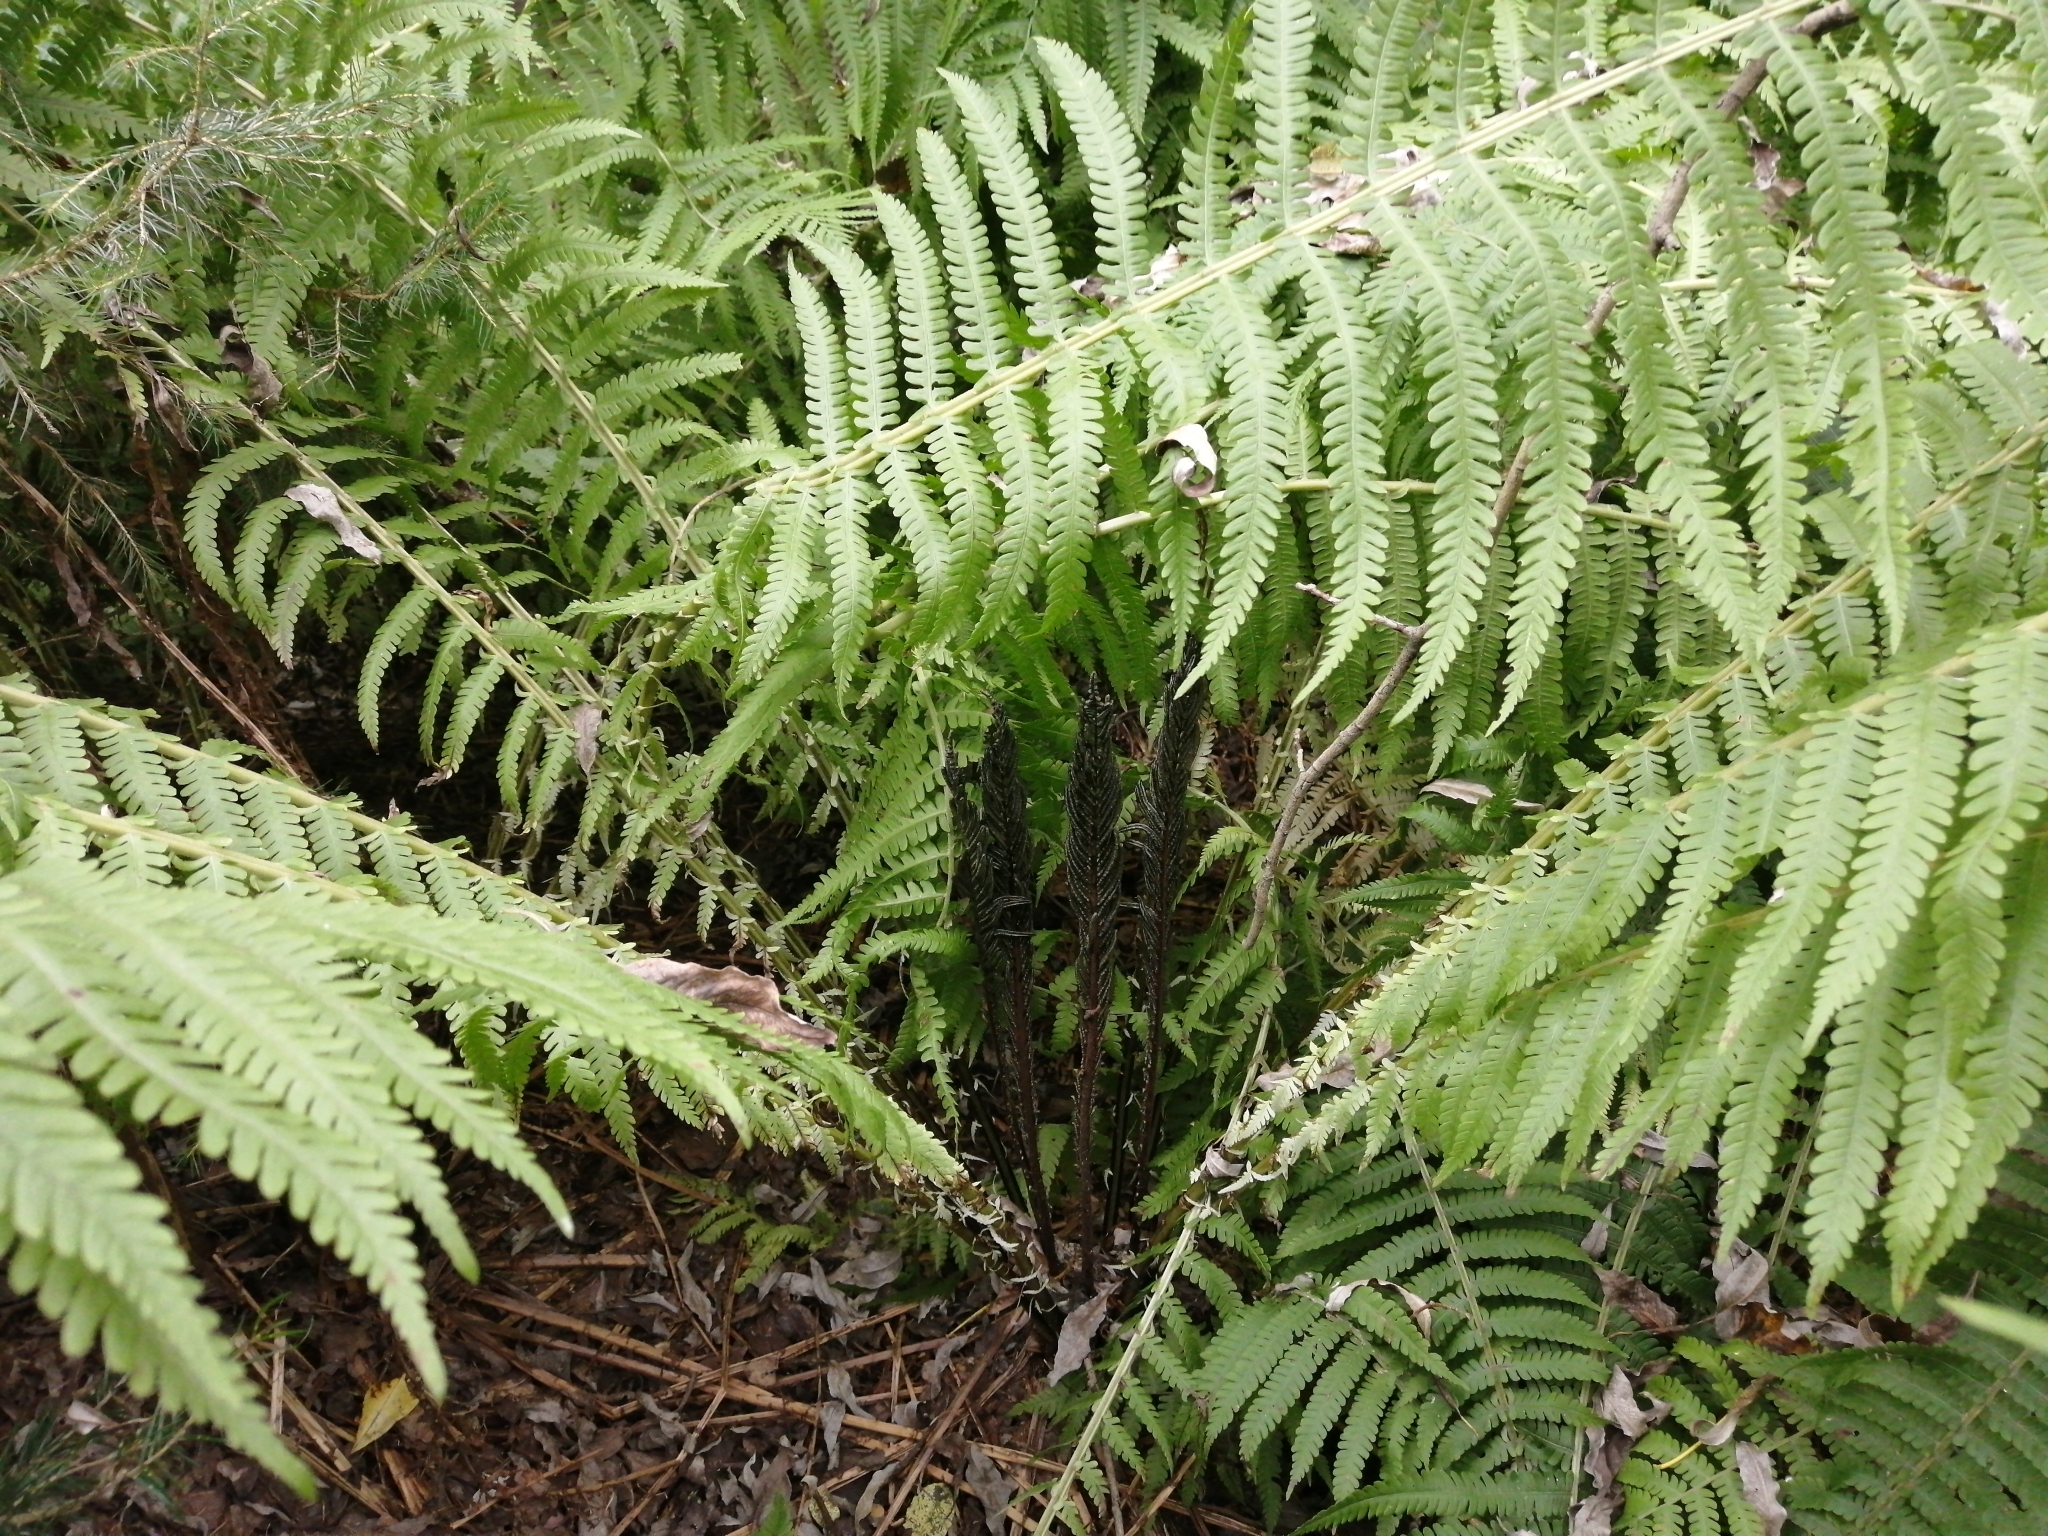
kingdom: Plantae
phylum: Tracheophyta
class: Polypodiopsida
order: Polypodiales
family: Onocleaceae
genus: Matteuccia
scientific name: Matteuccia struthiopteris
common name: Ostrich fern
